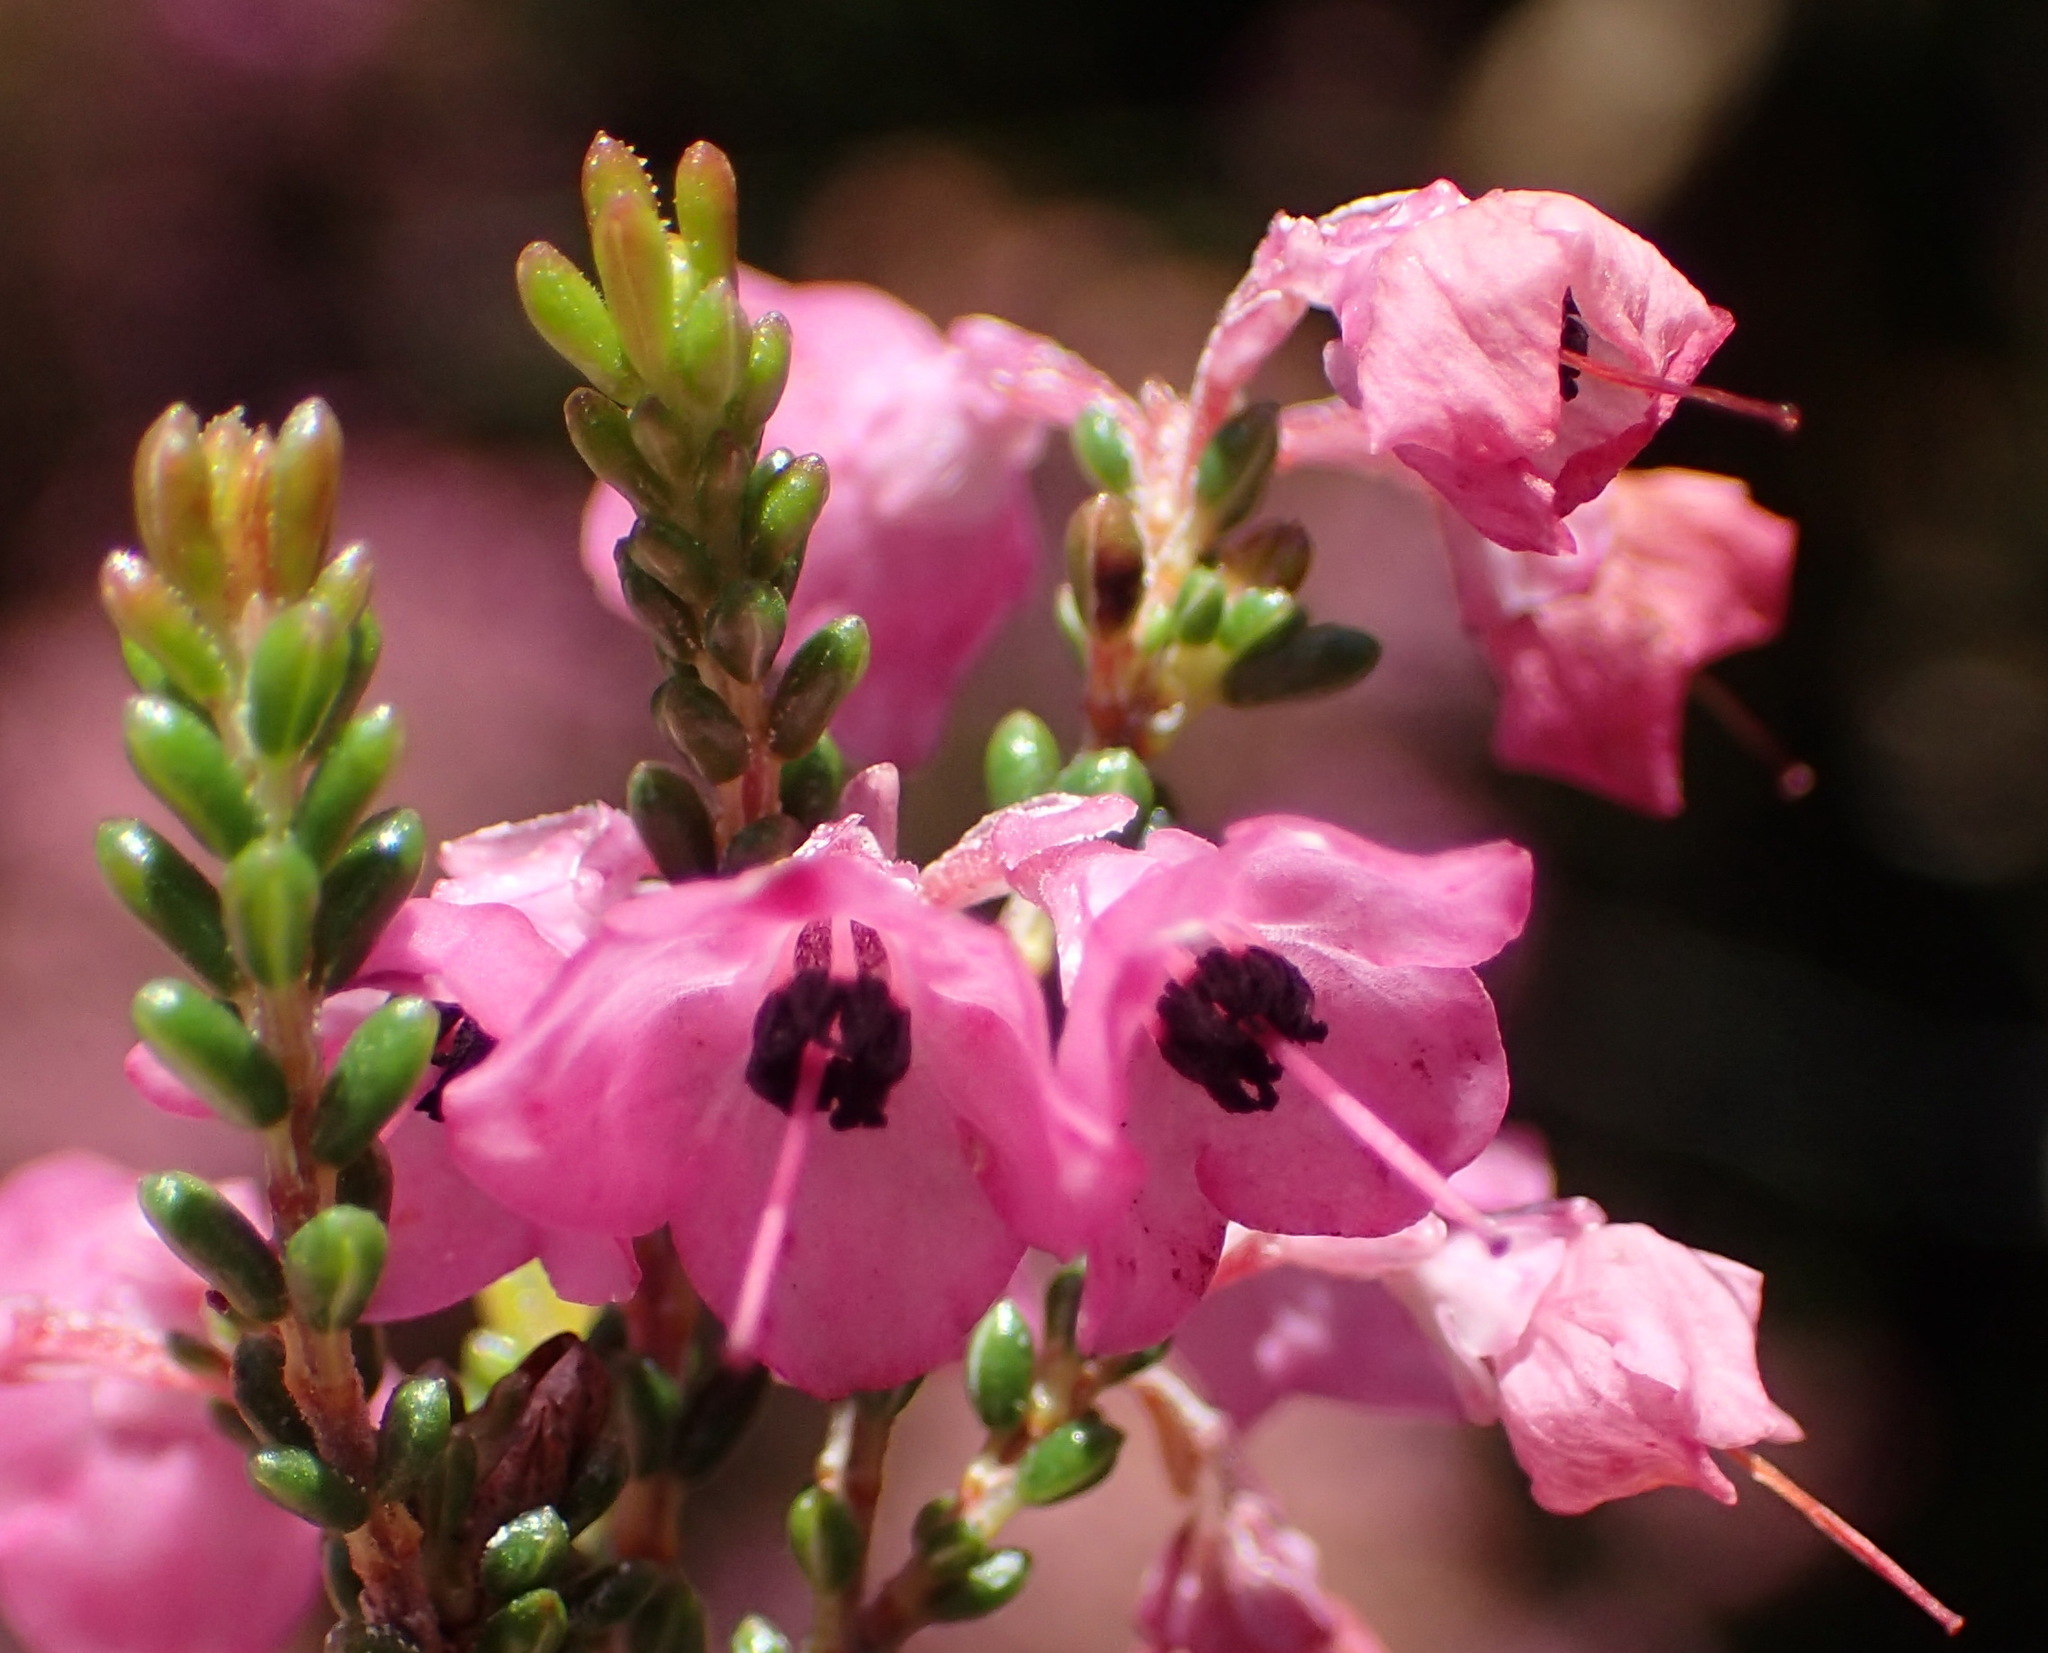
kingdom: Plantae
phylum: Tracheophyta
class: Magnoliopsida
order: Ericales
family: Ericaceae
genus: Erica
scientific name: Erica melanthera
